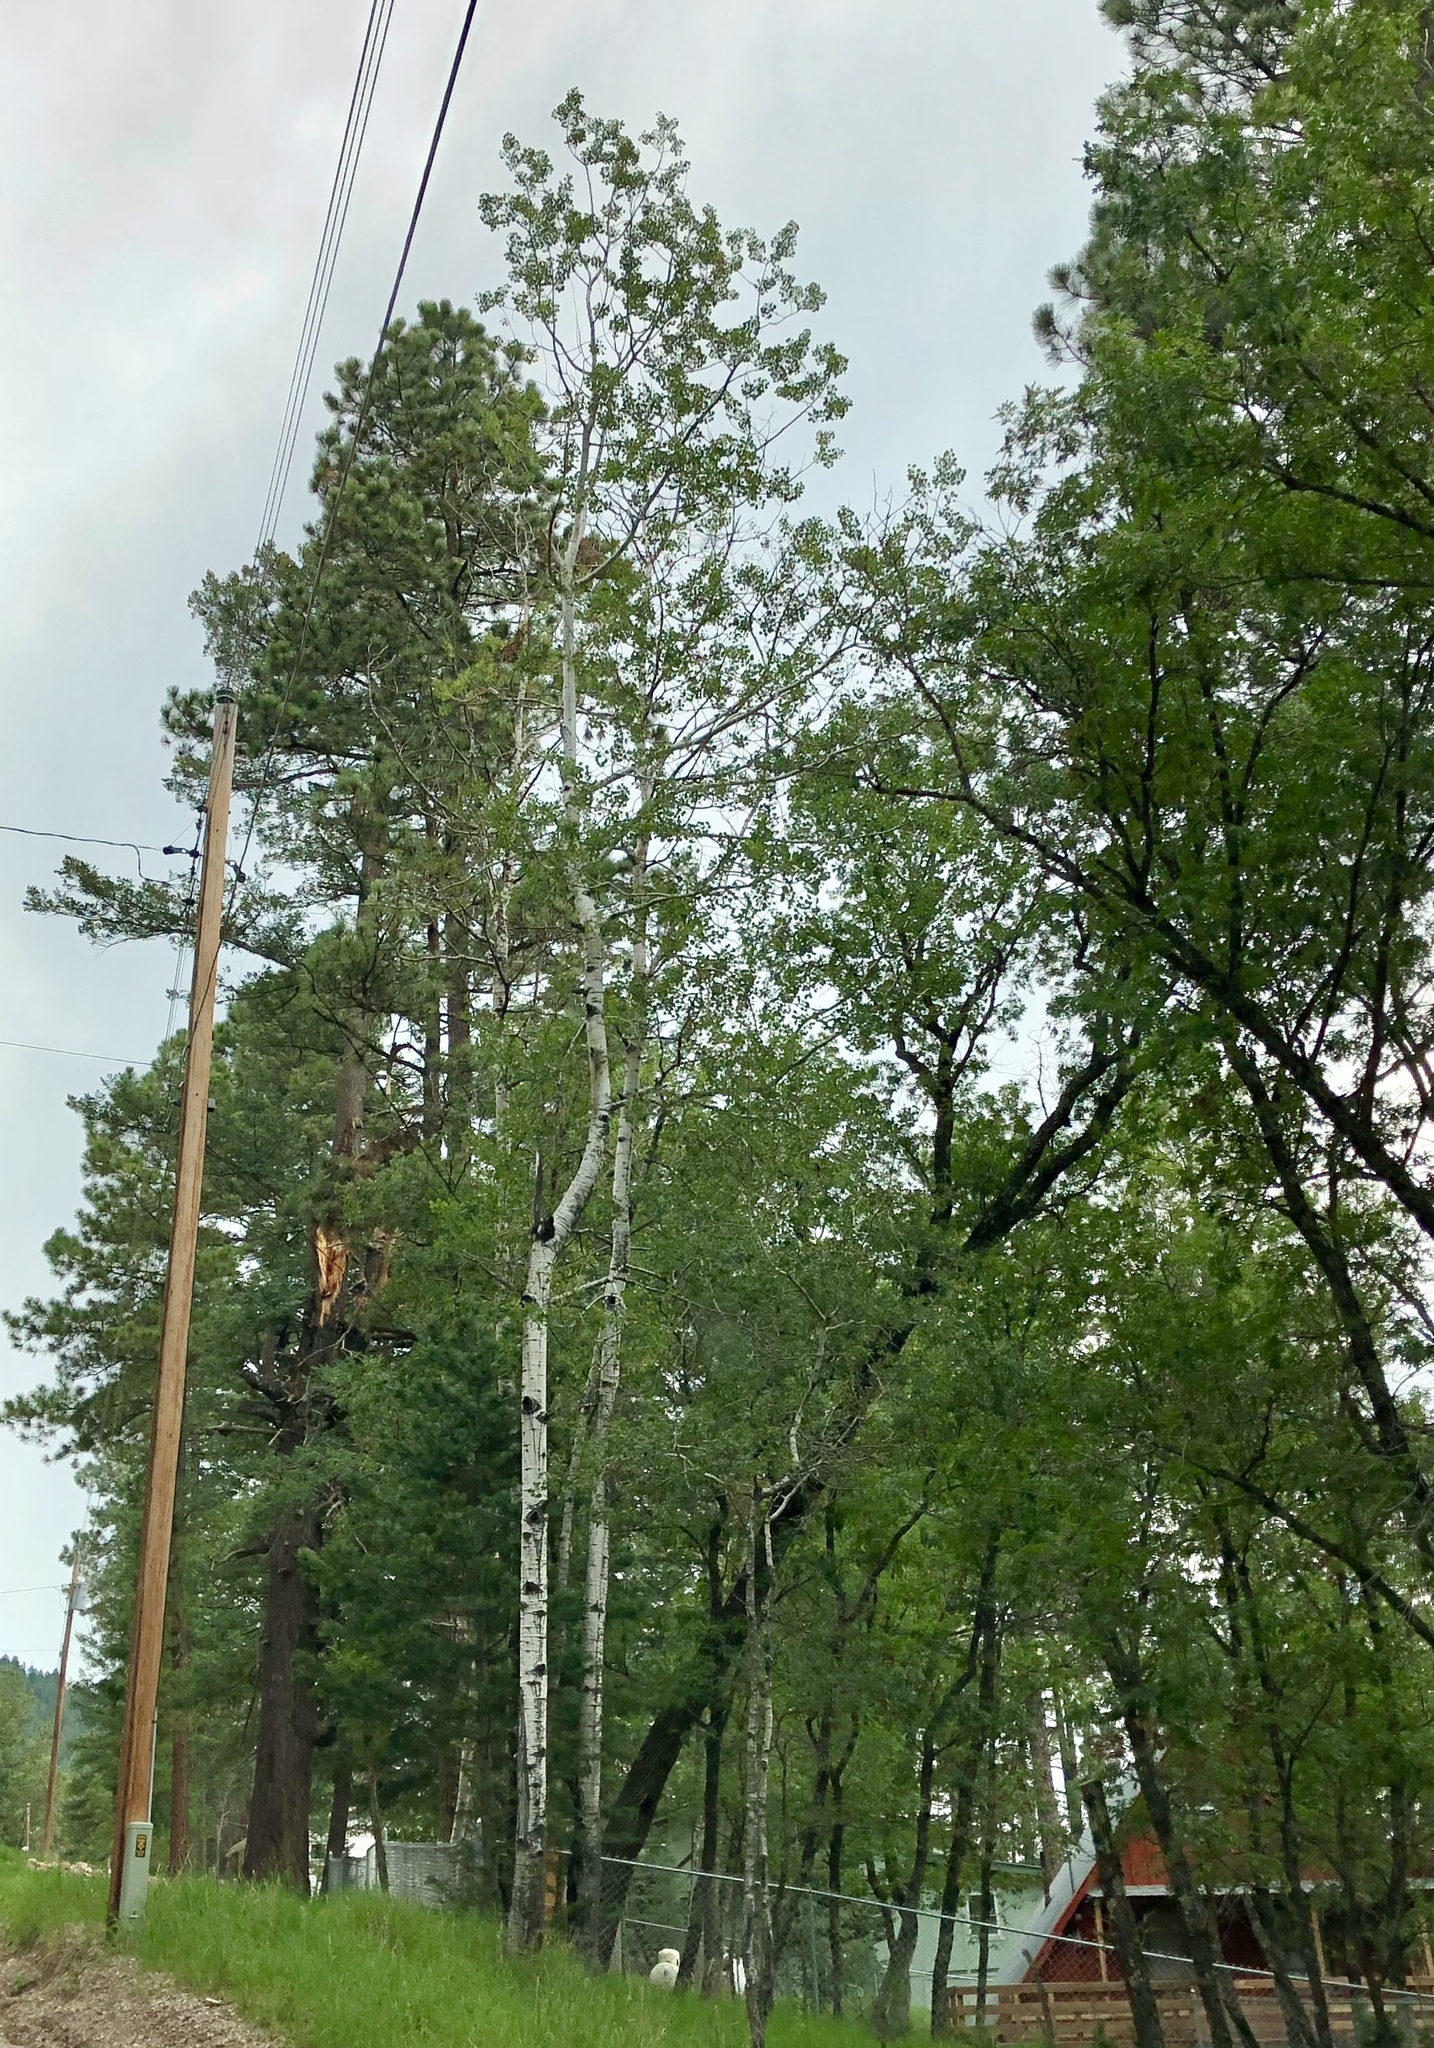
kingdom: Plantae
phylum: Tracheophyta
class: Magnoliopsida
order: Malpighiales
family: Salicaceae
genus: Populus
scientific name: Populus tremuloides
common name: Quaking aspen
